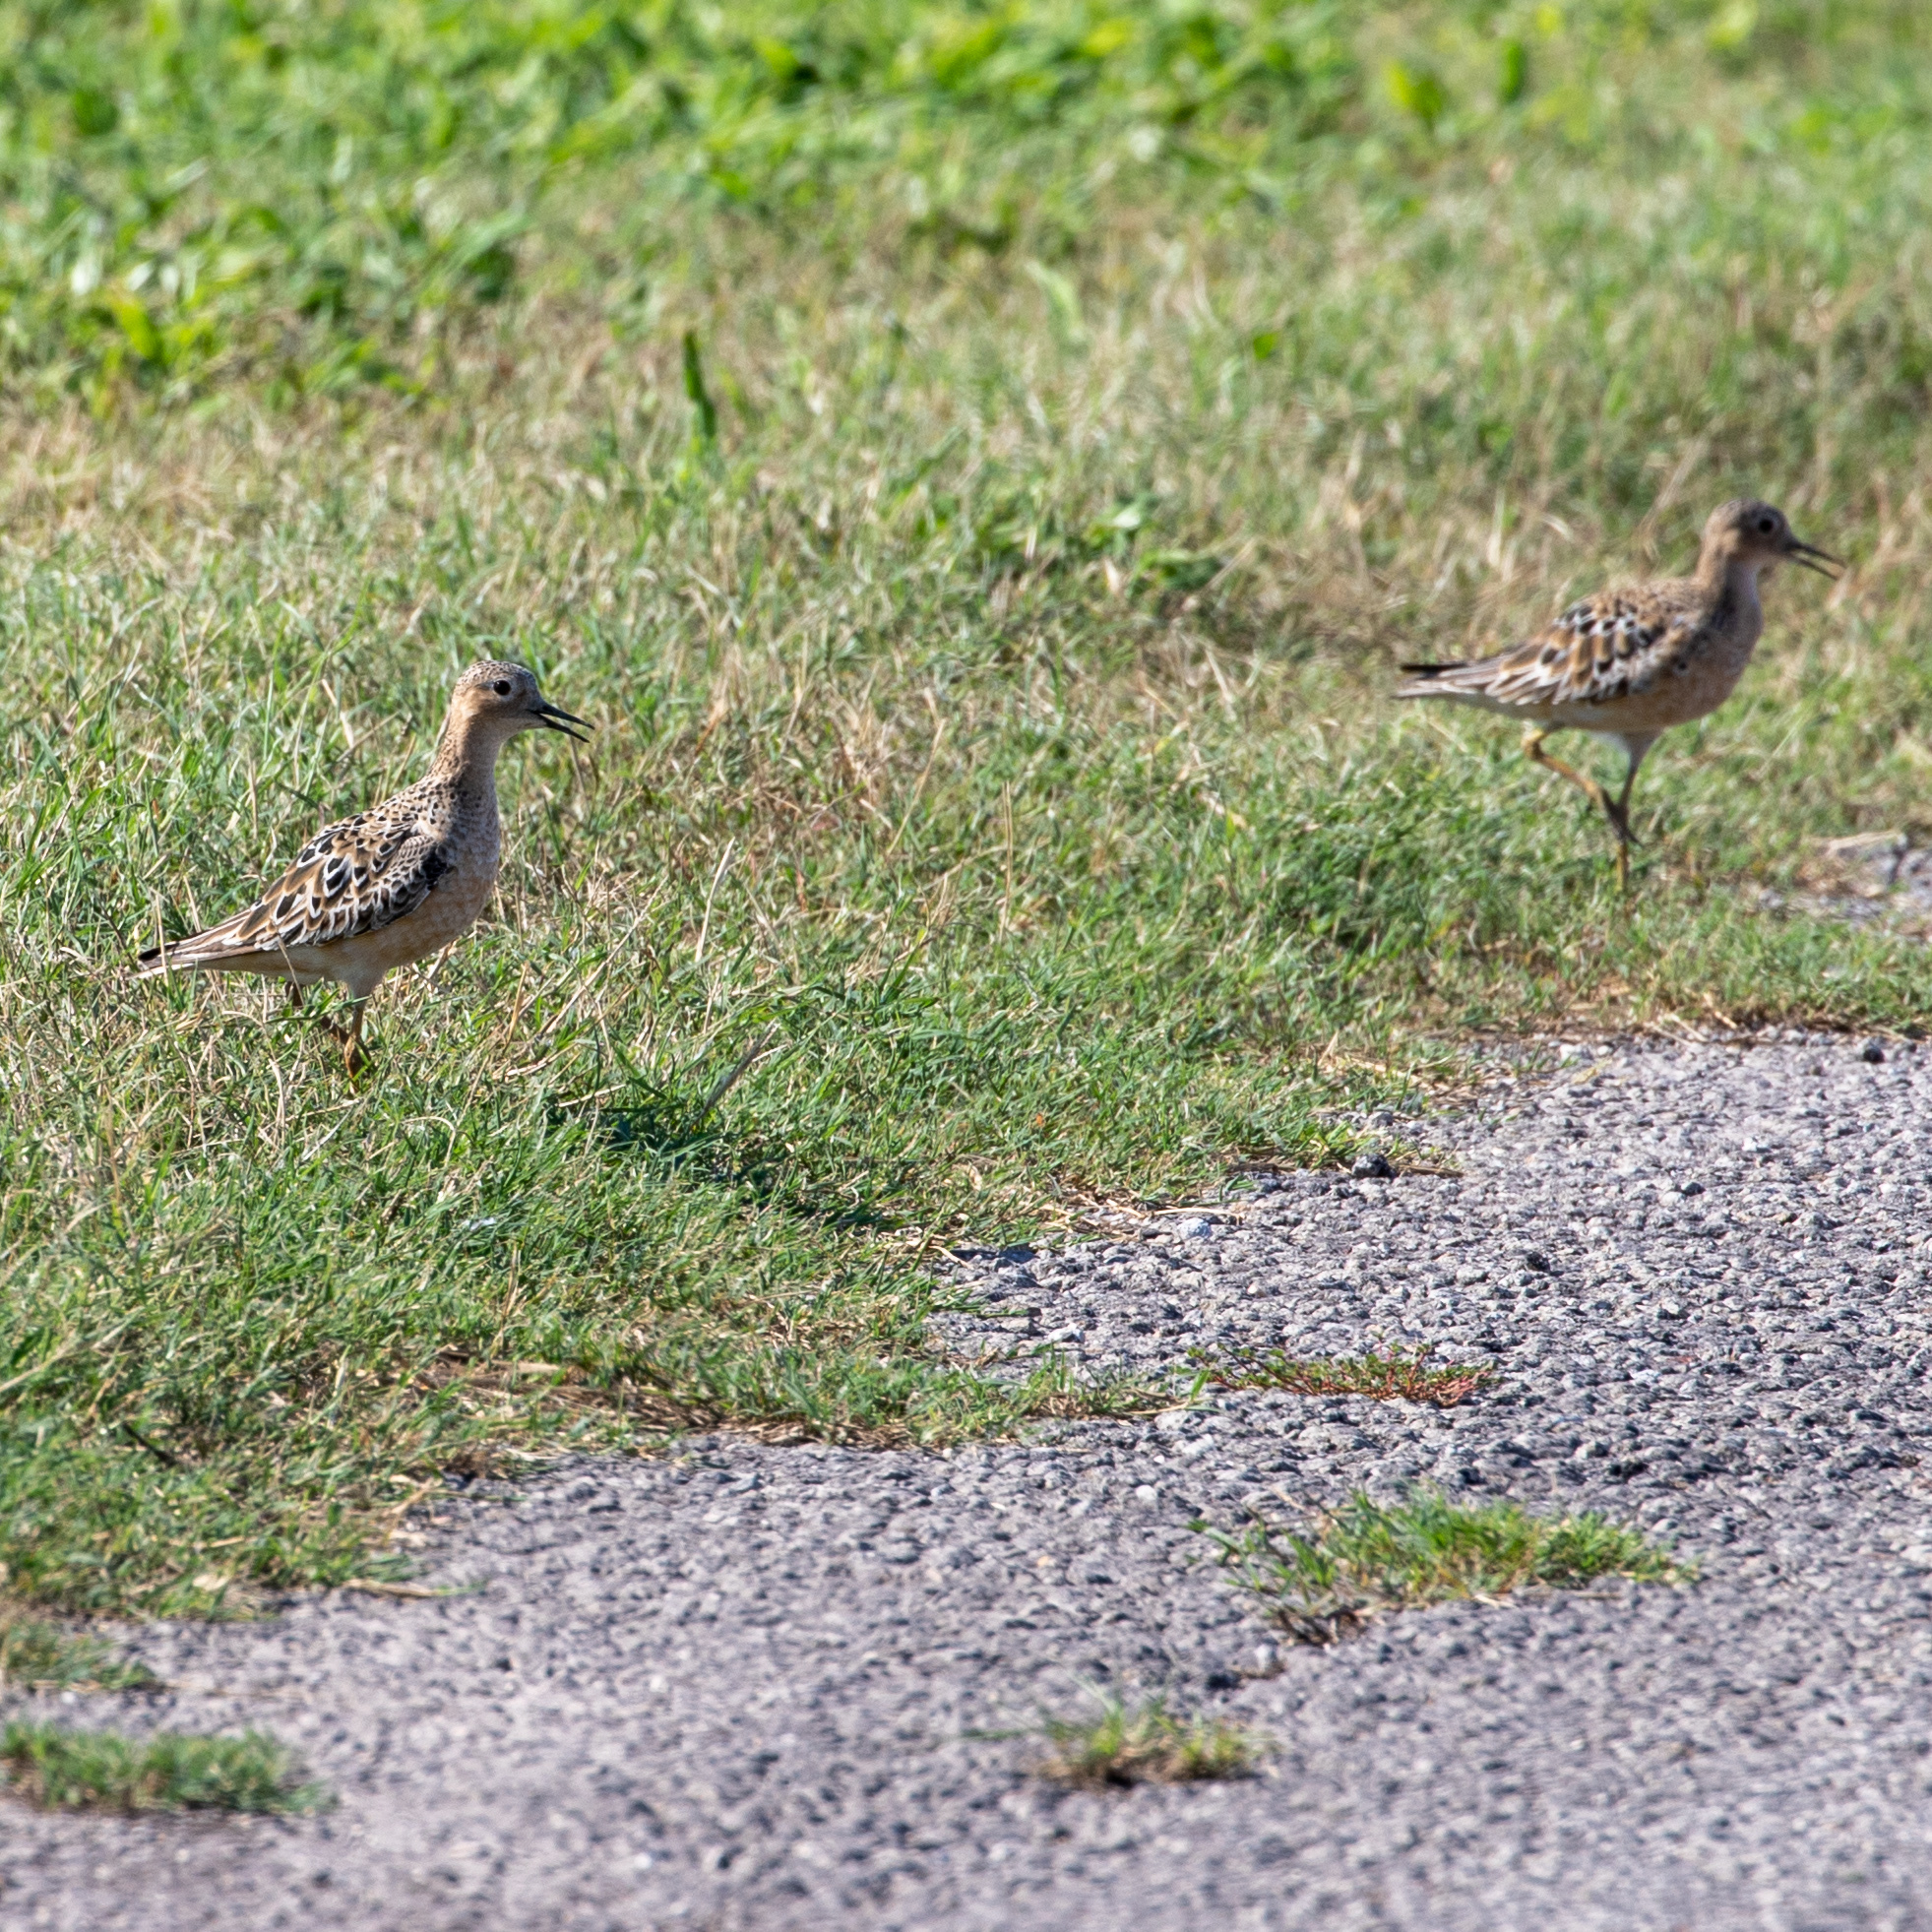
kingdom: Animalia
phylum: Chordata
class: Aves
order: Charadriiformes
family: Scolopacidae
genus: Calidris
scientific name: Calidris subruficollis
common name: Buff-breasted sandpiper
